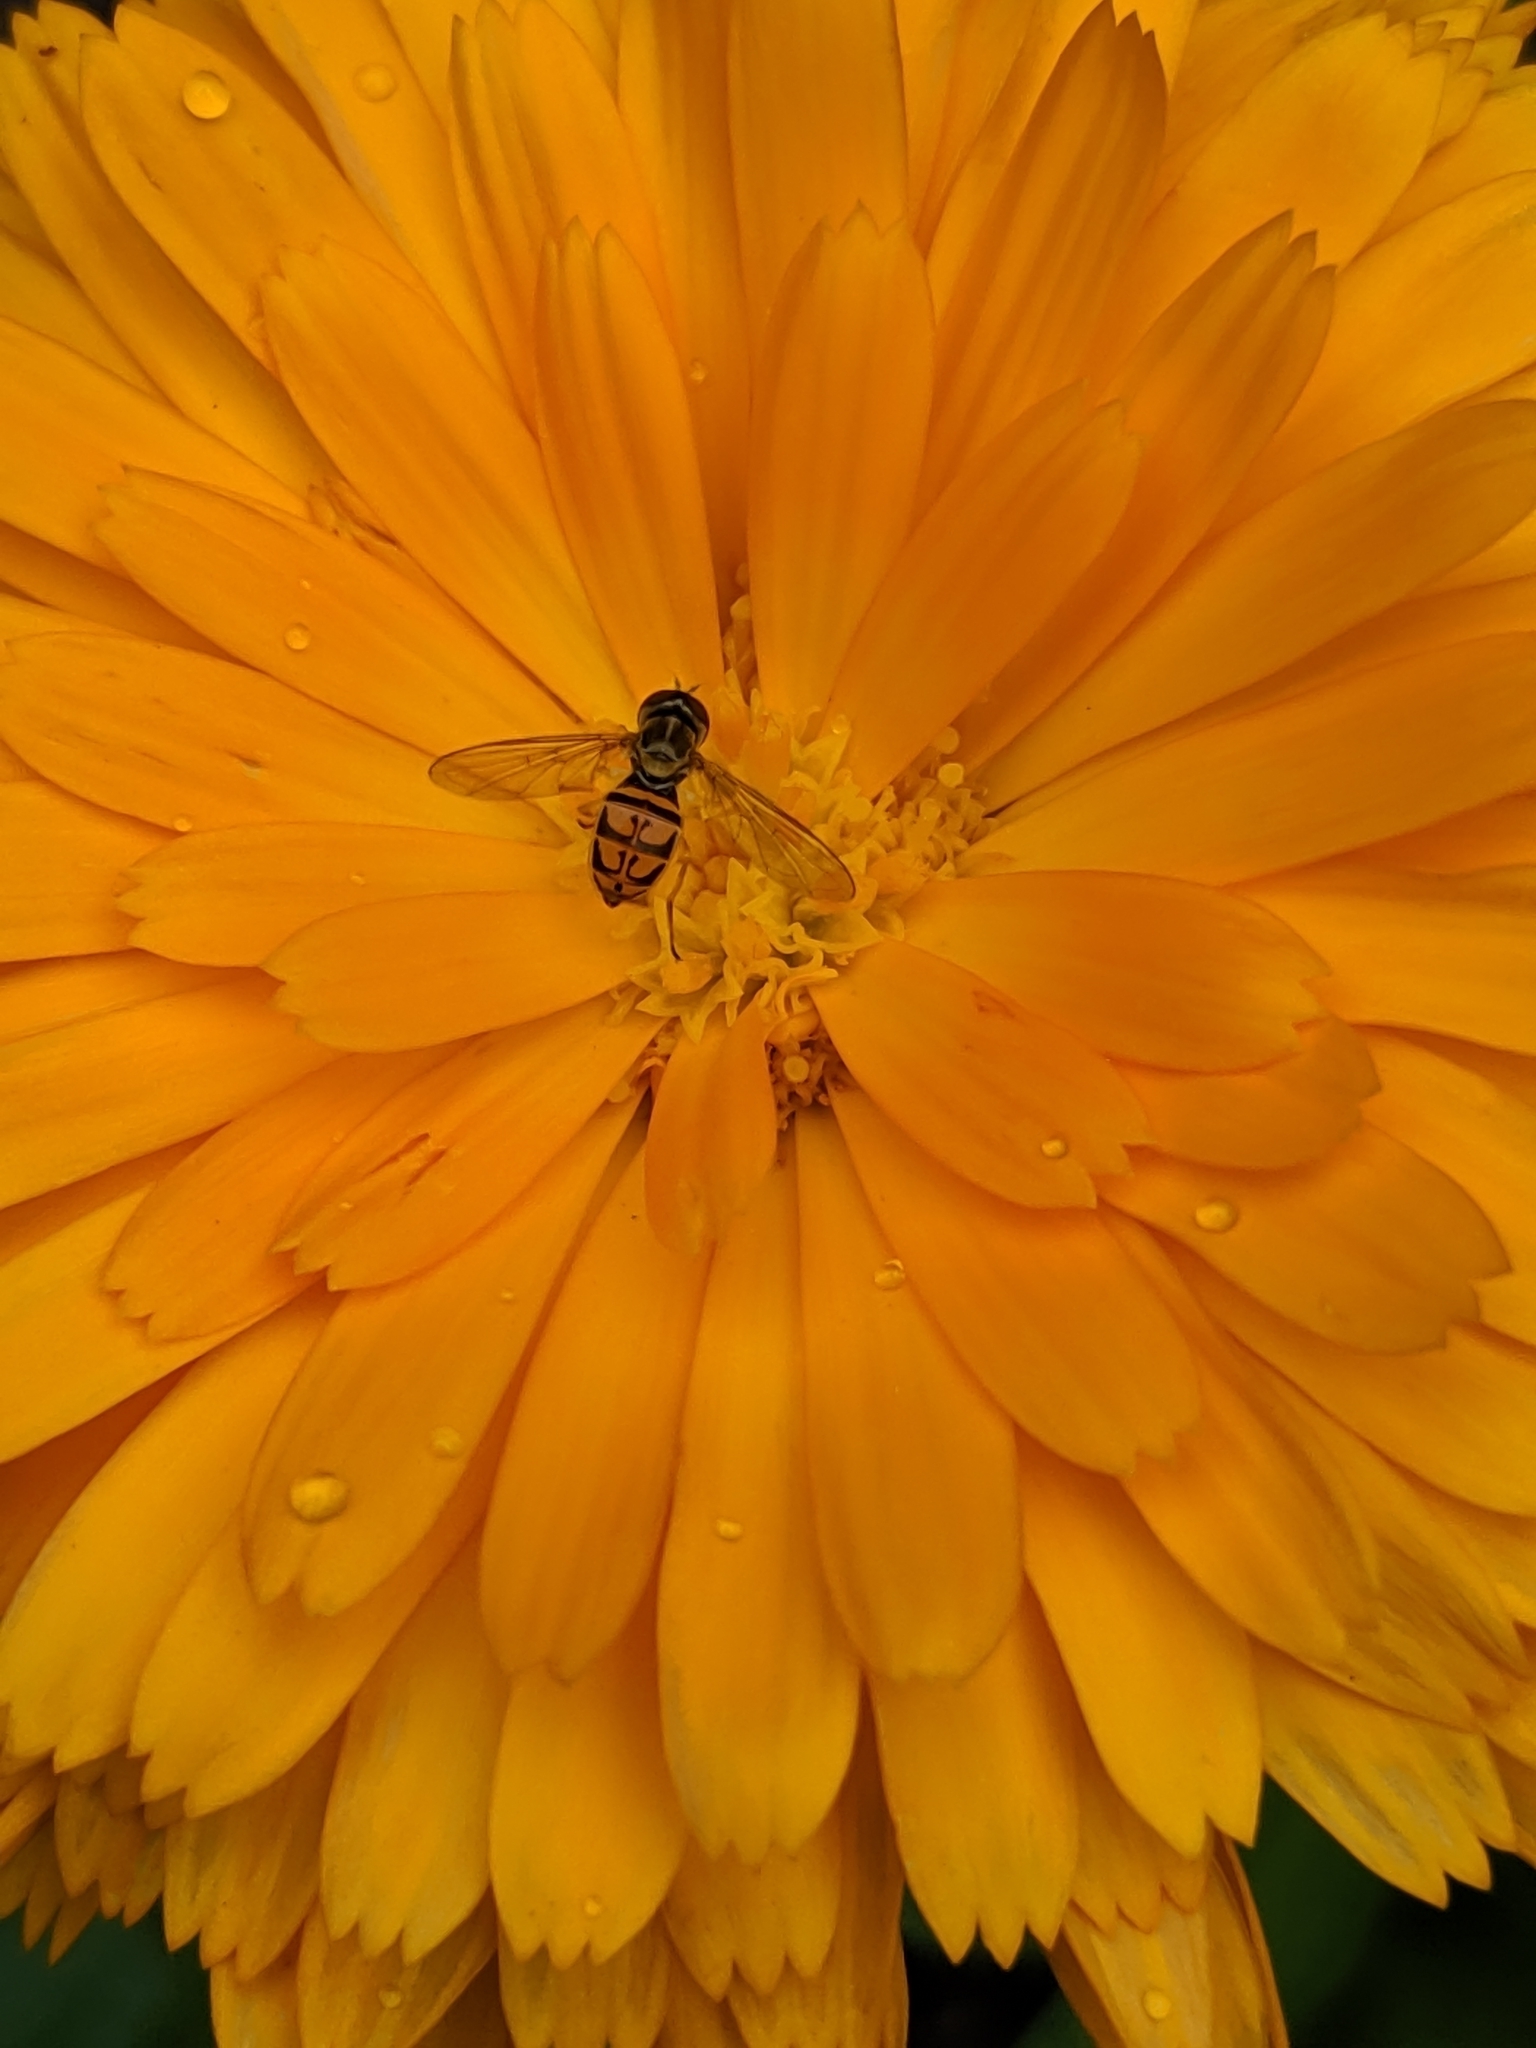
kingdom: Animalia
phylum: Arthropoda
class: Insecta
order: Diptera
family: Syrphidae
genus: Toxomerus
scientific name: Toxomerus marginatus
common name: Syrphid fly
